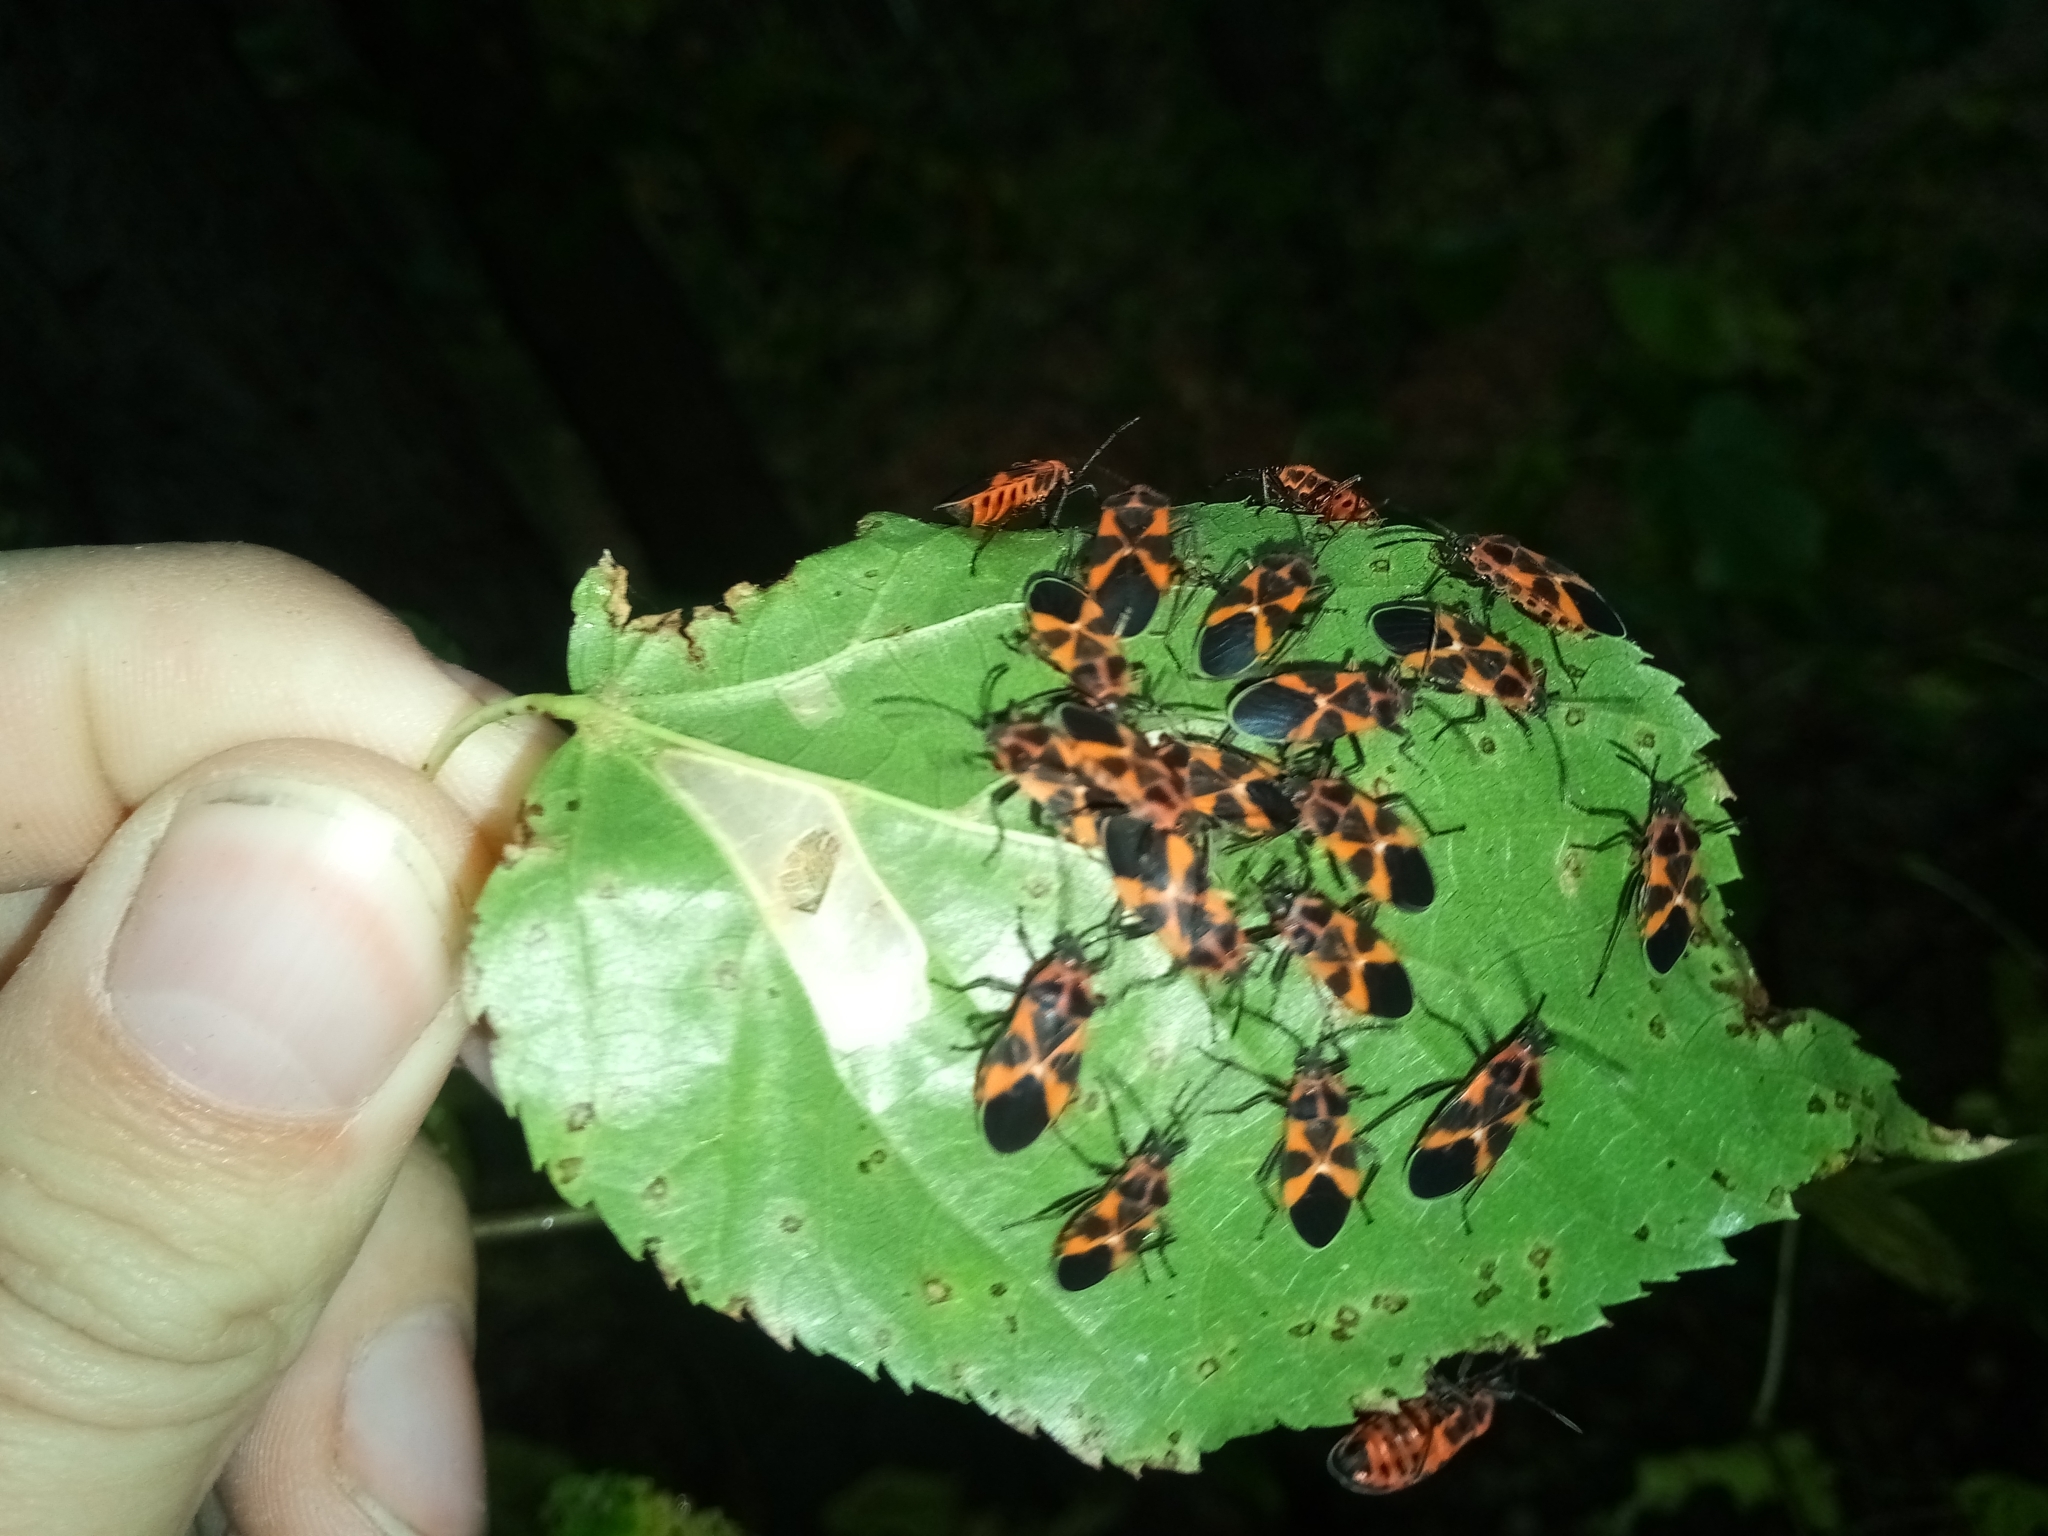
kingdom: Animalia
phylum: Arthropoda
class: Insecta
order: Hemiptera
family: Lygaeidae
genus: Tropidothorax
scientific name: Tropidothorax leucopterus
